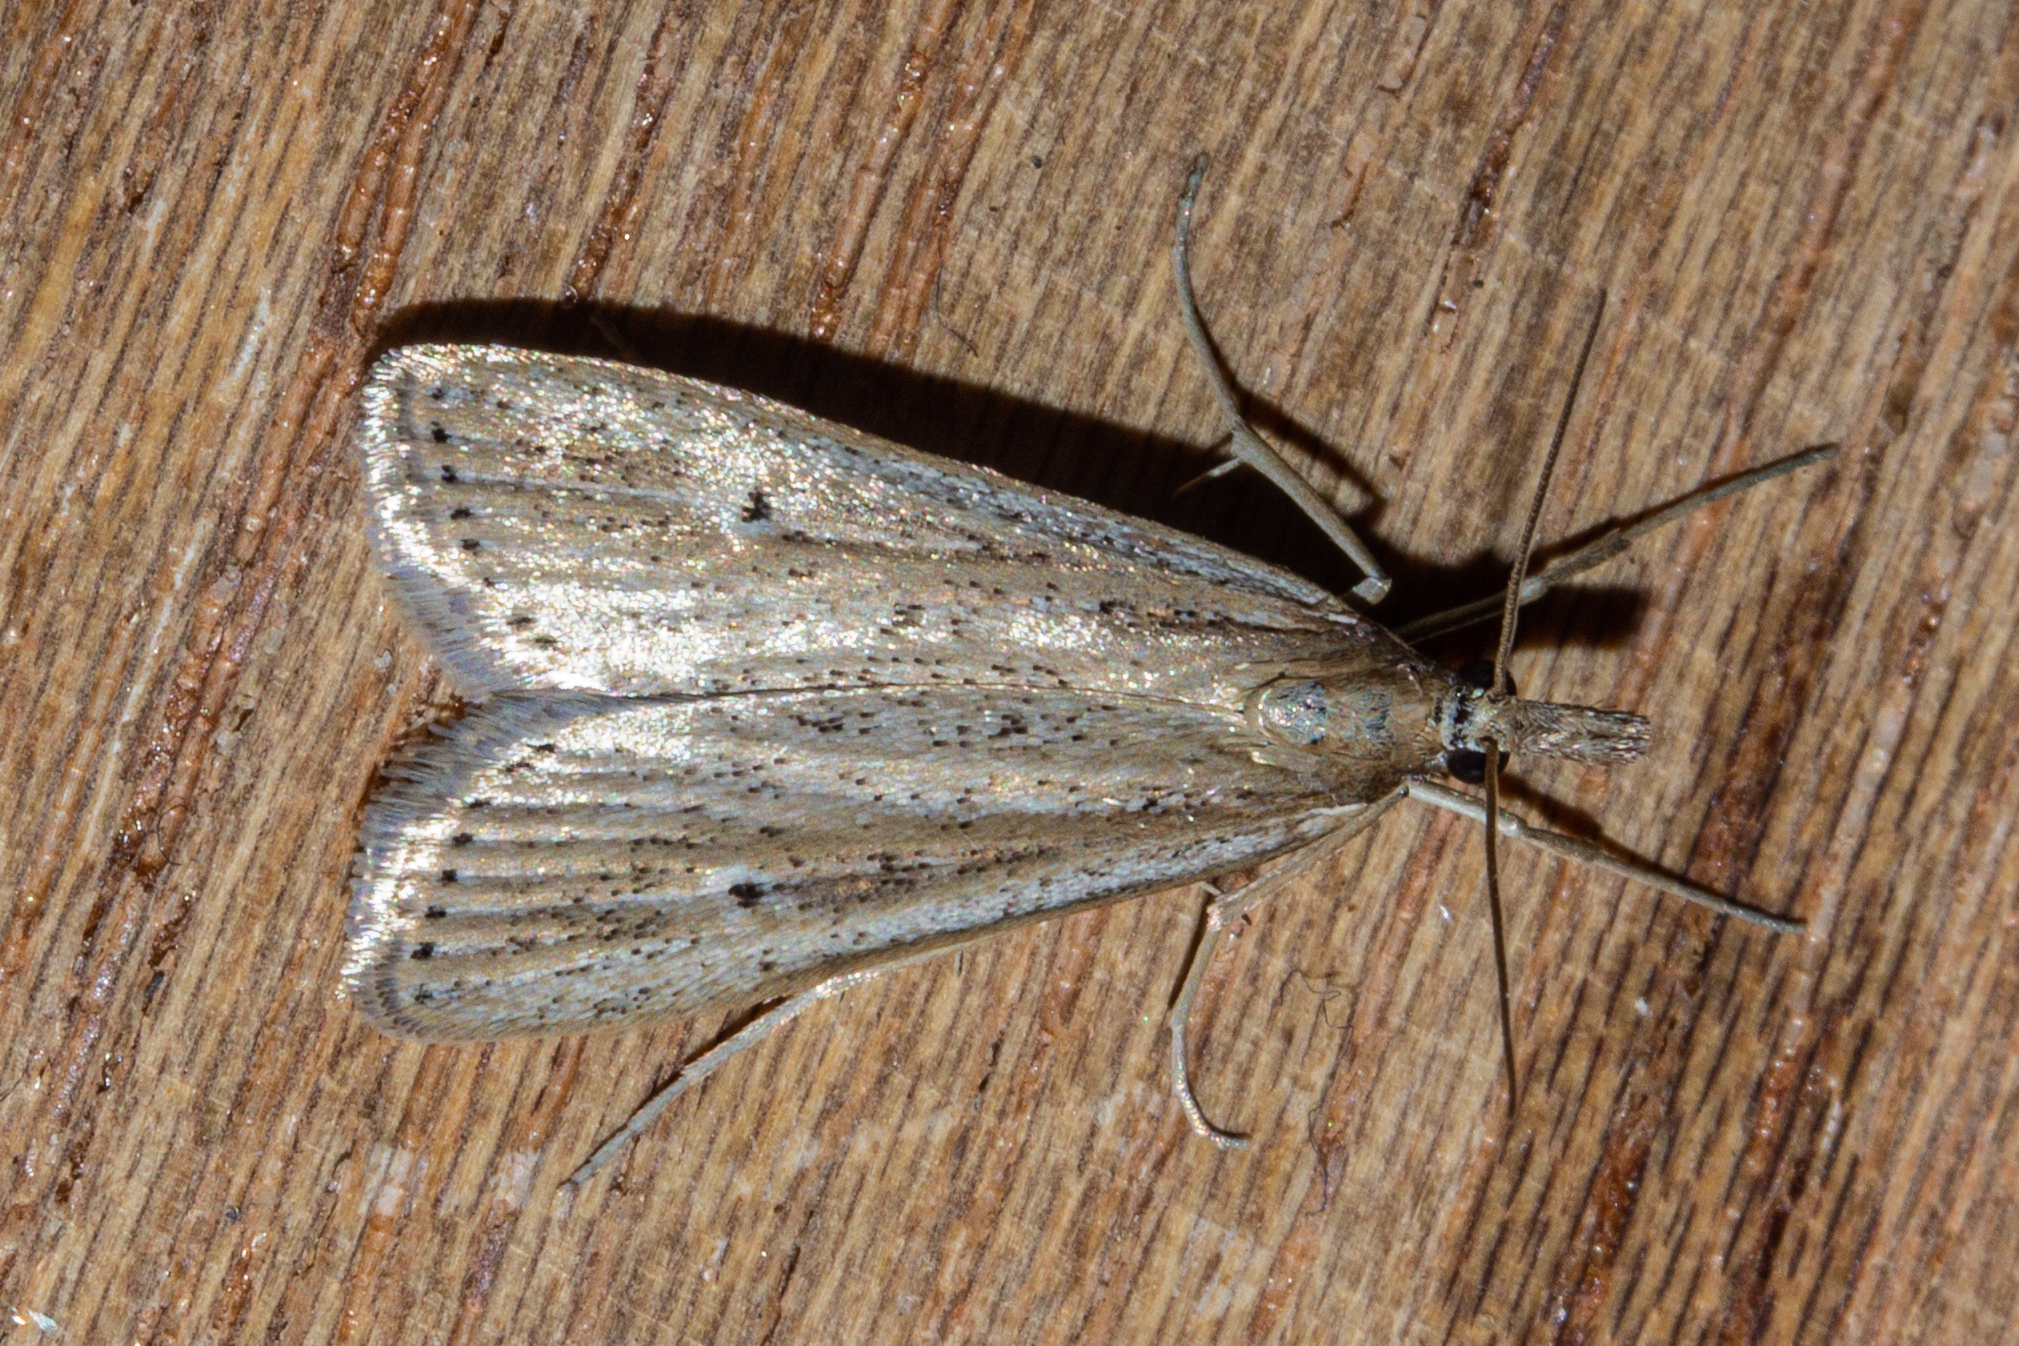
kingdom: Animalia
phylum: Arthropoda
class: Insecta
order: Lepidoptera
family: Crambidae
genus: Eudonia
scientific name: Eudonia sabulosella
